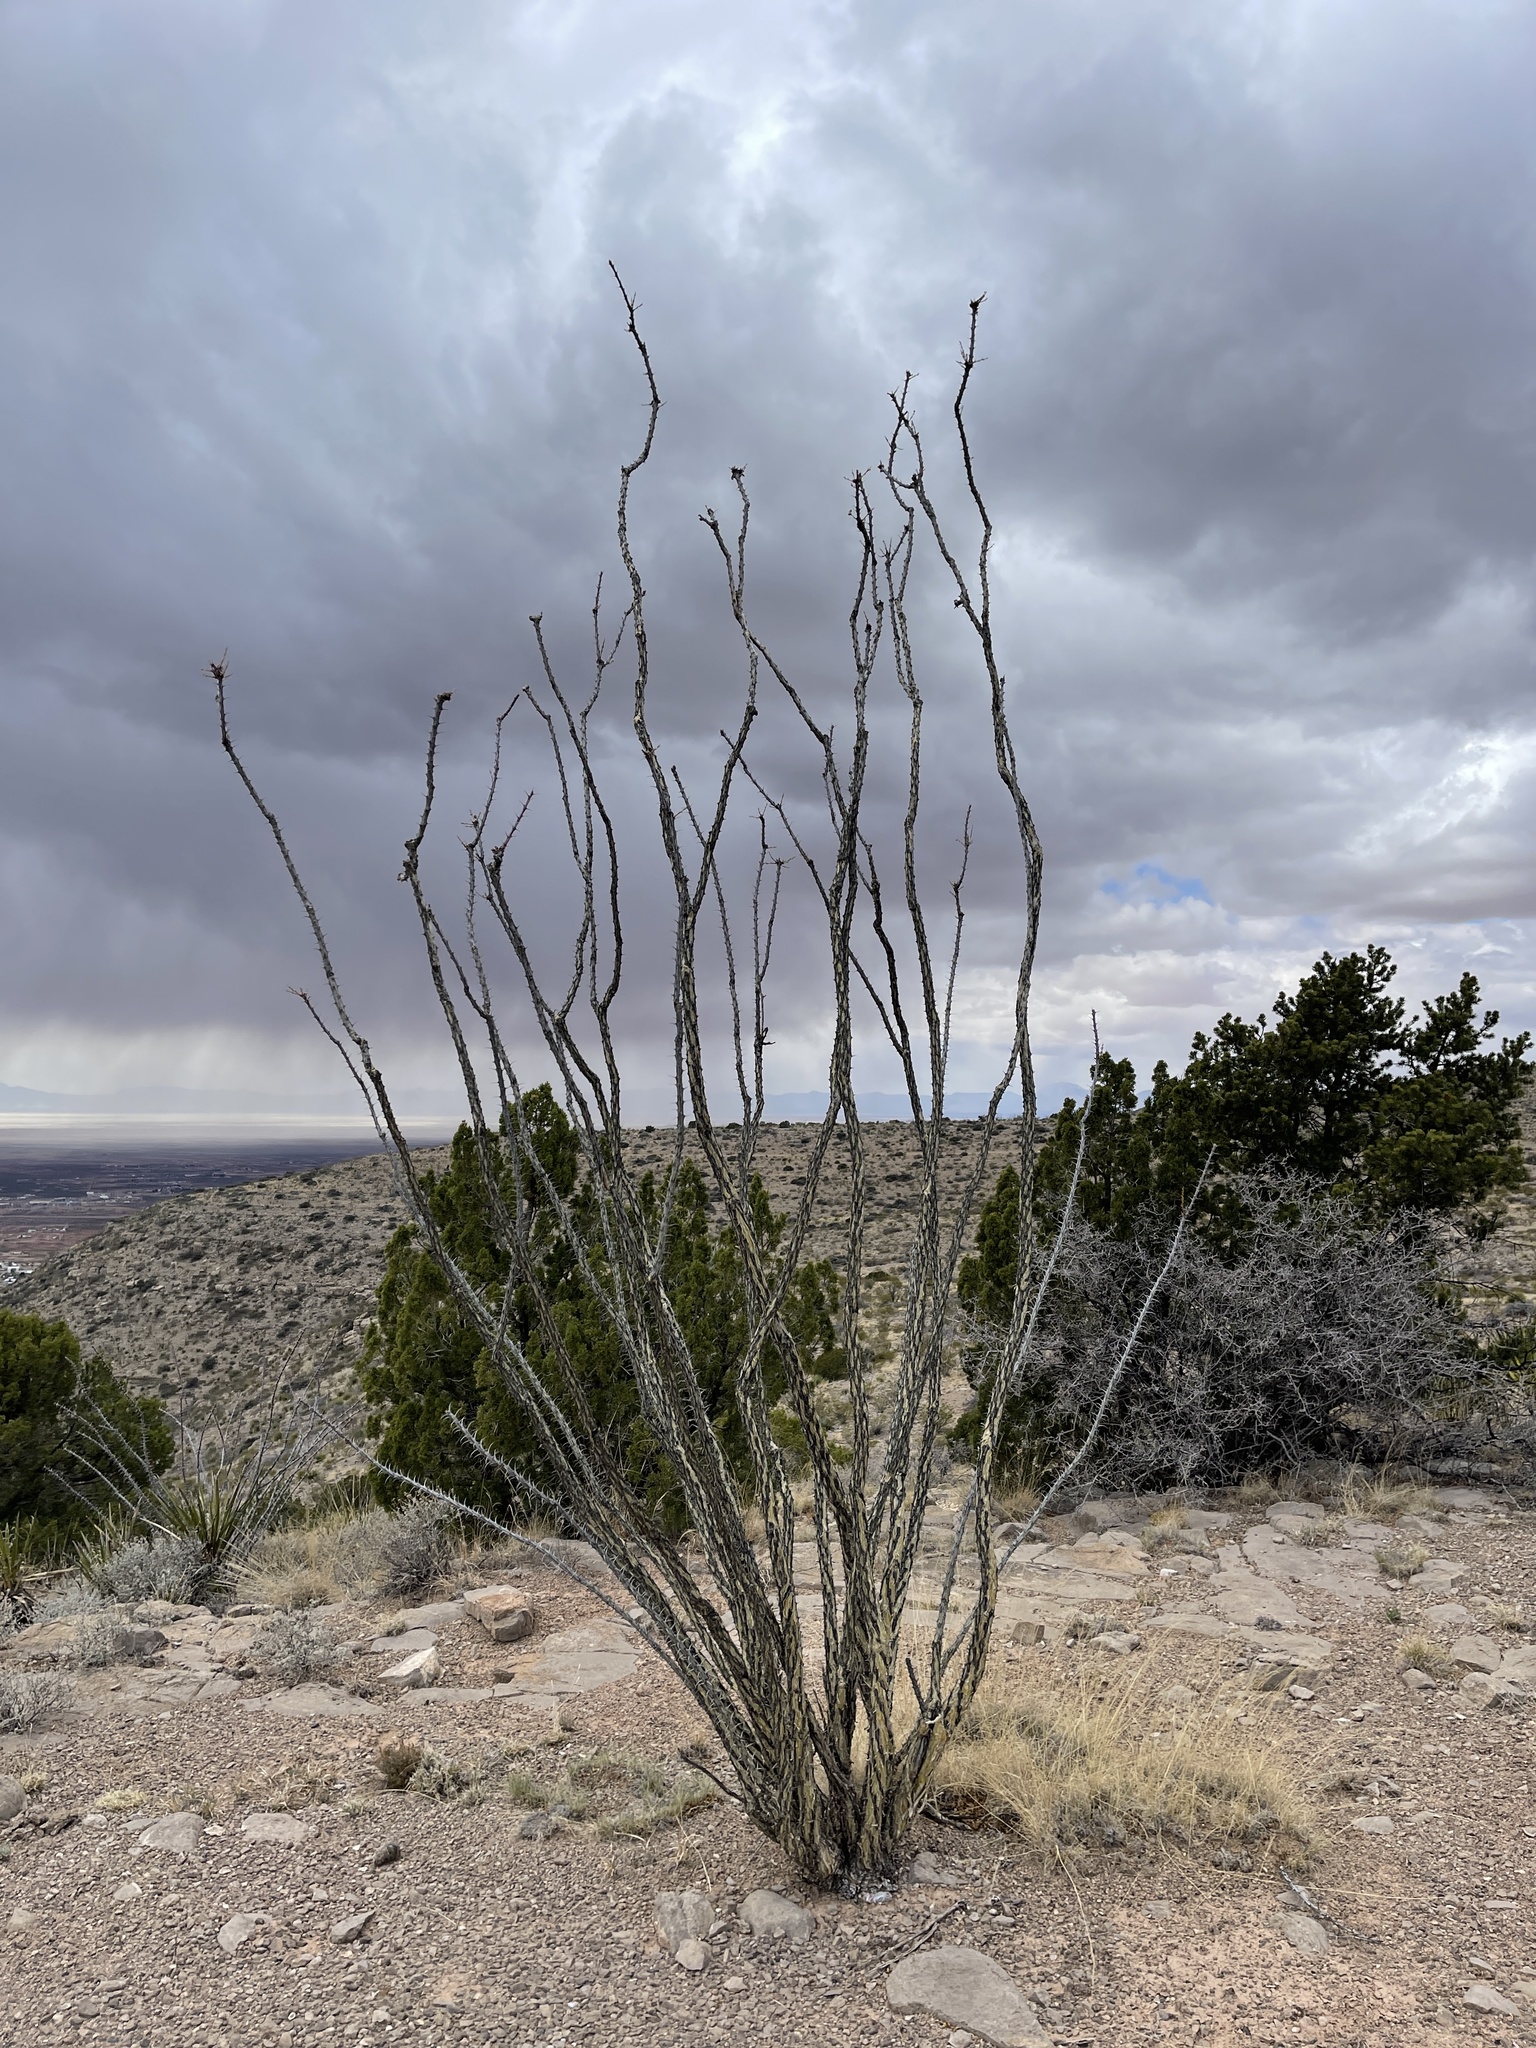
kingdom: Plantae
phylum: Tracheophyta
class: Magnoliopsida
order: Ericales
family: Fouquieriaceae
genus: Fouquieria
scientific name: Fouquieria splendens
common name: Vine-cactus
